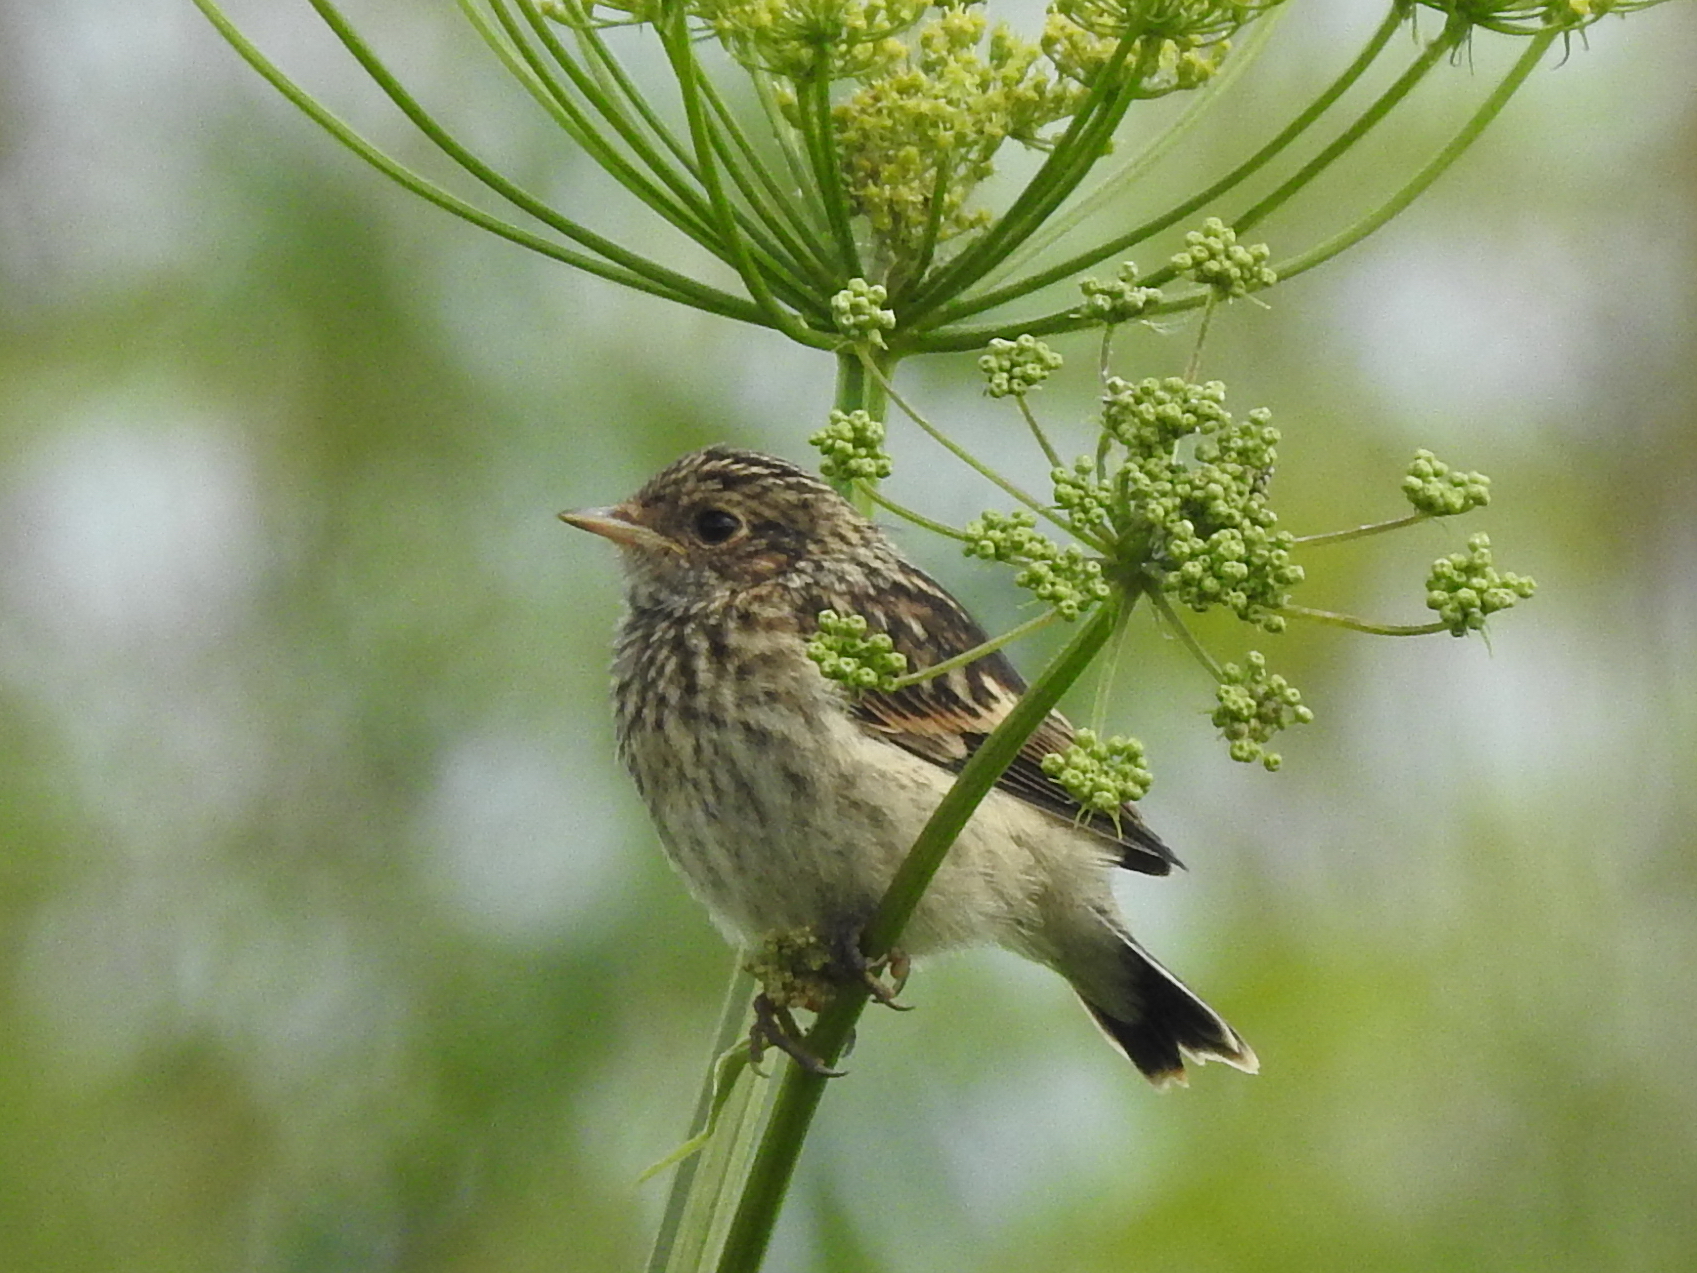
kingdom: Animalia
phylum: Chordata
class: Aves
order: Passeriformes
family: Muscicapidae
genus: Saxicola
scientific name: Saxicola rubetra
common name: Whinchat
